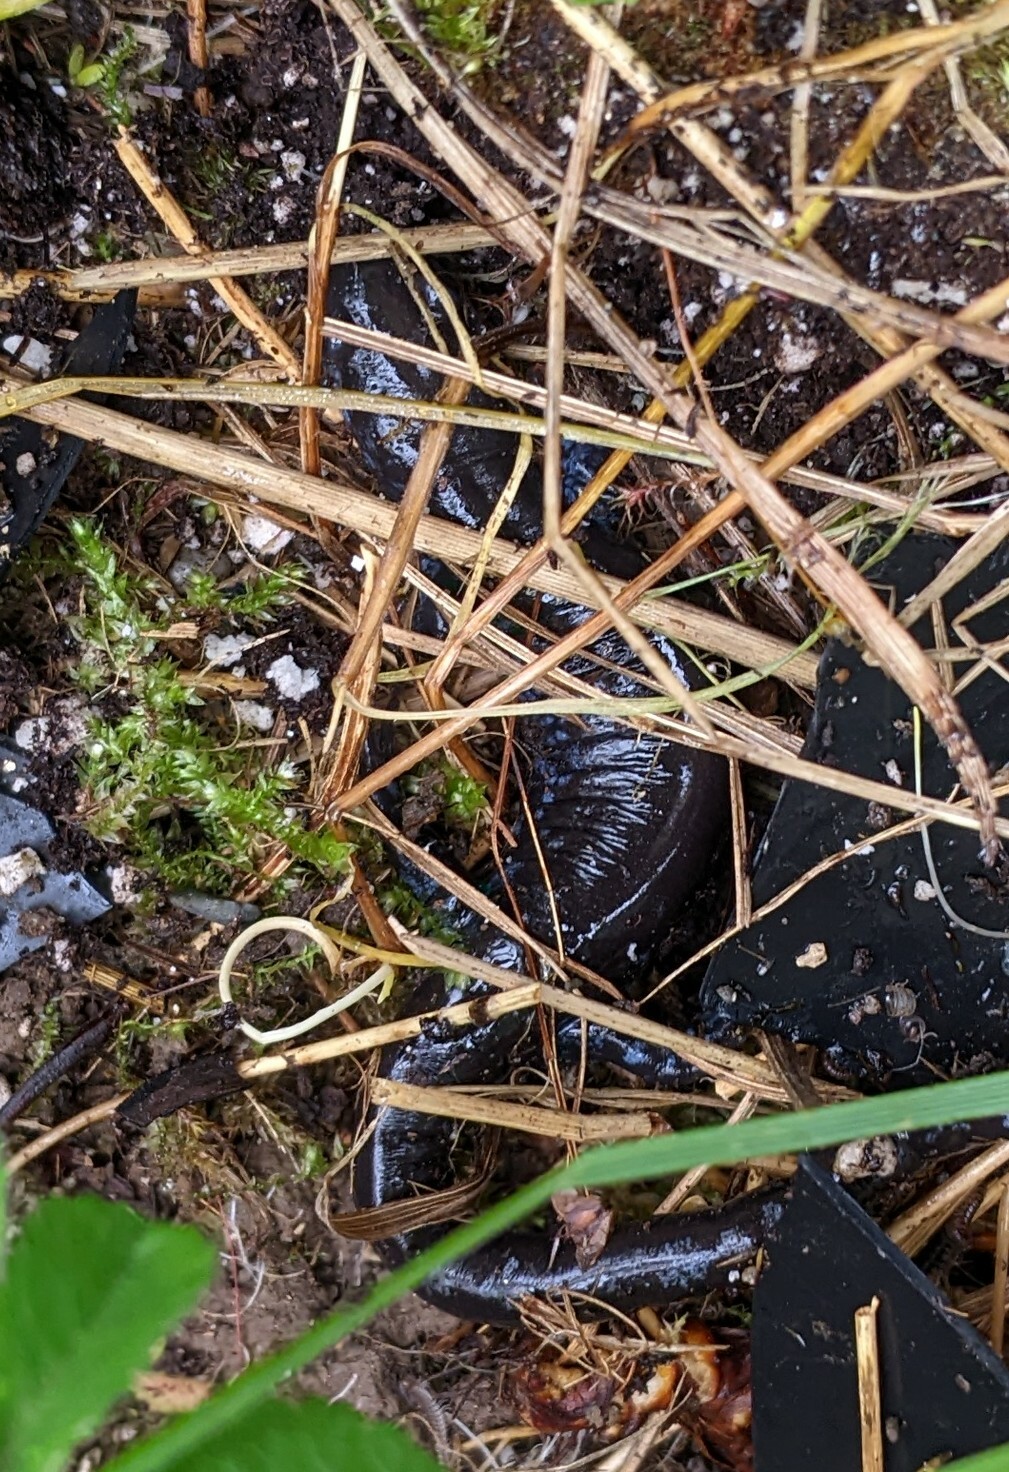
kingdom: Animalia
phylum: Chordata
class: Amphibia
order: Caudata
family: Ambystomatidae
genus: Ambystoma
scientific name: Ambystoma laterale
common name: Blue-spotted salamander
